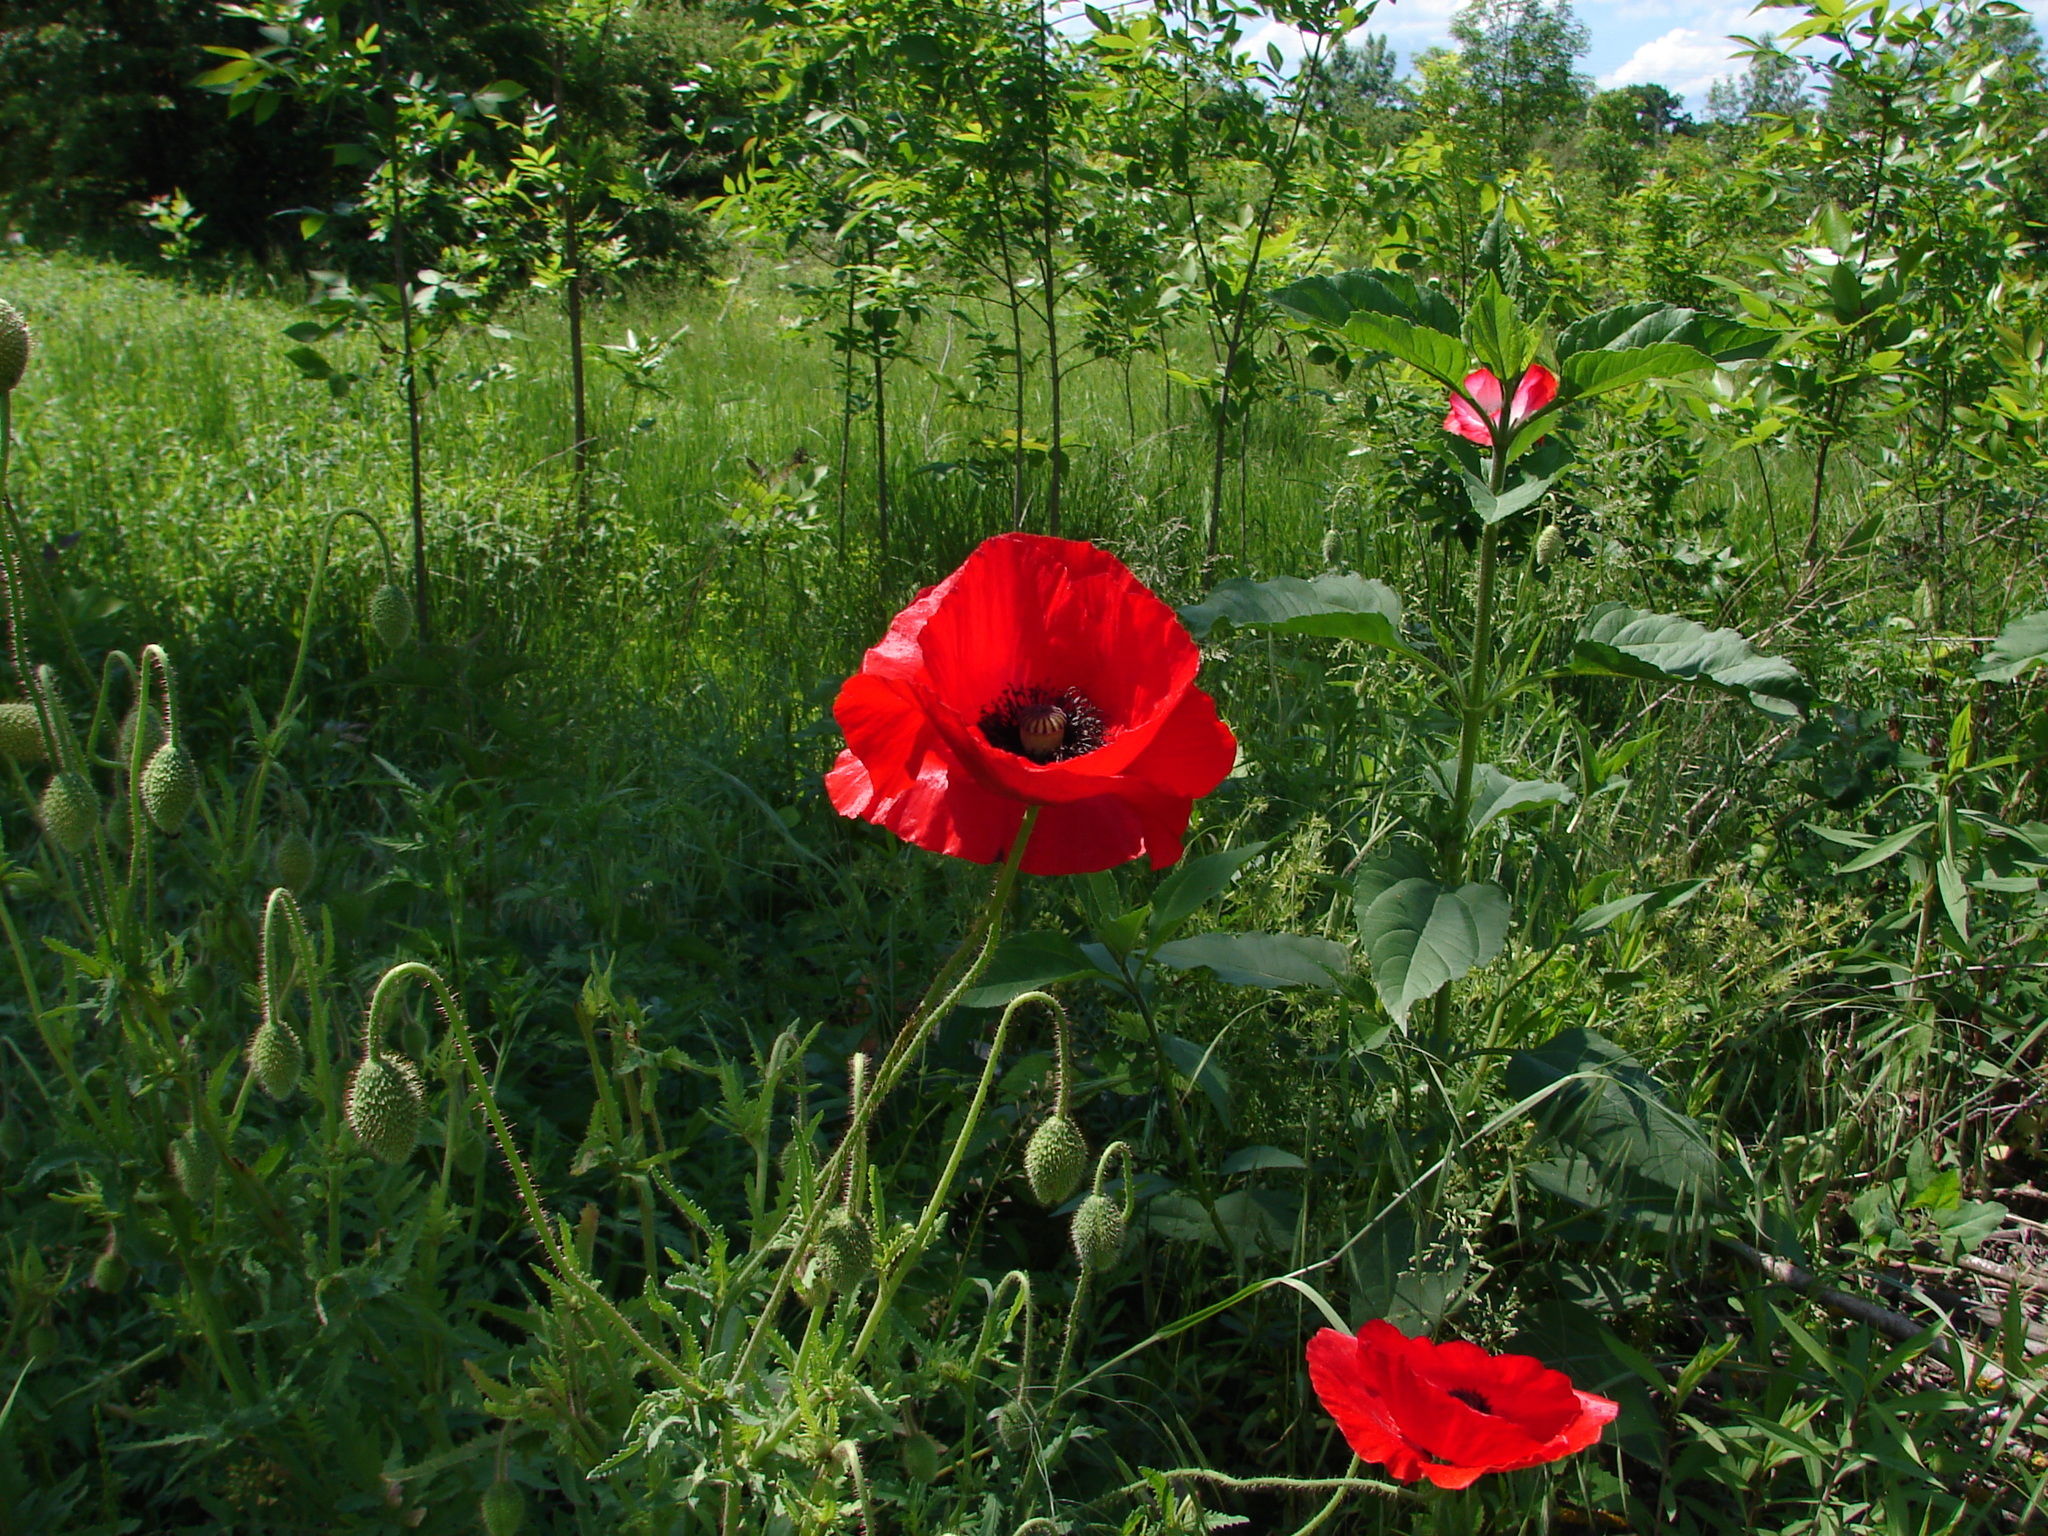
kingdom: Plantae
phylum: Tracheophyta
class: Magnoliopsida
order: Ranunculales
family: Papaveraceae
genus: Papaver
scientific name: Papaver rhoeas
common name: Corn poppy
